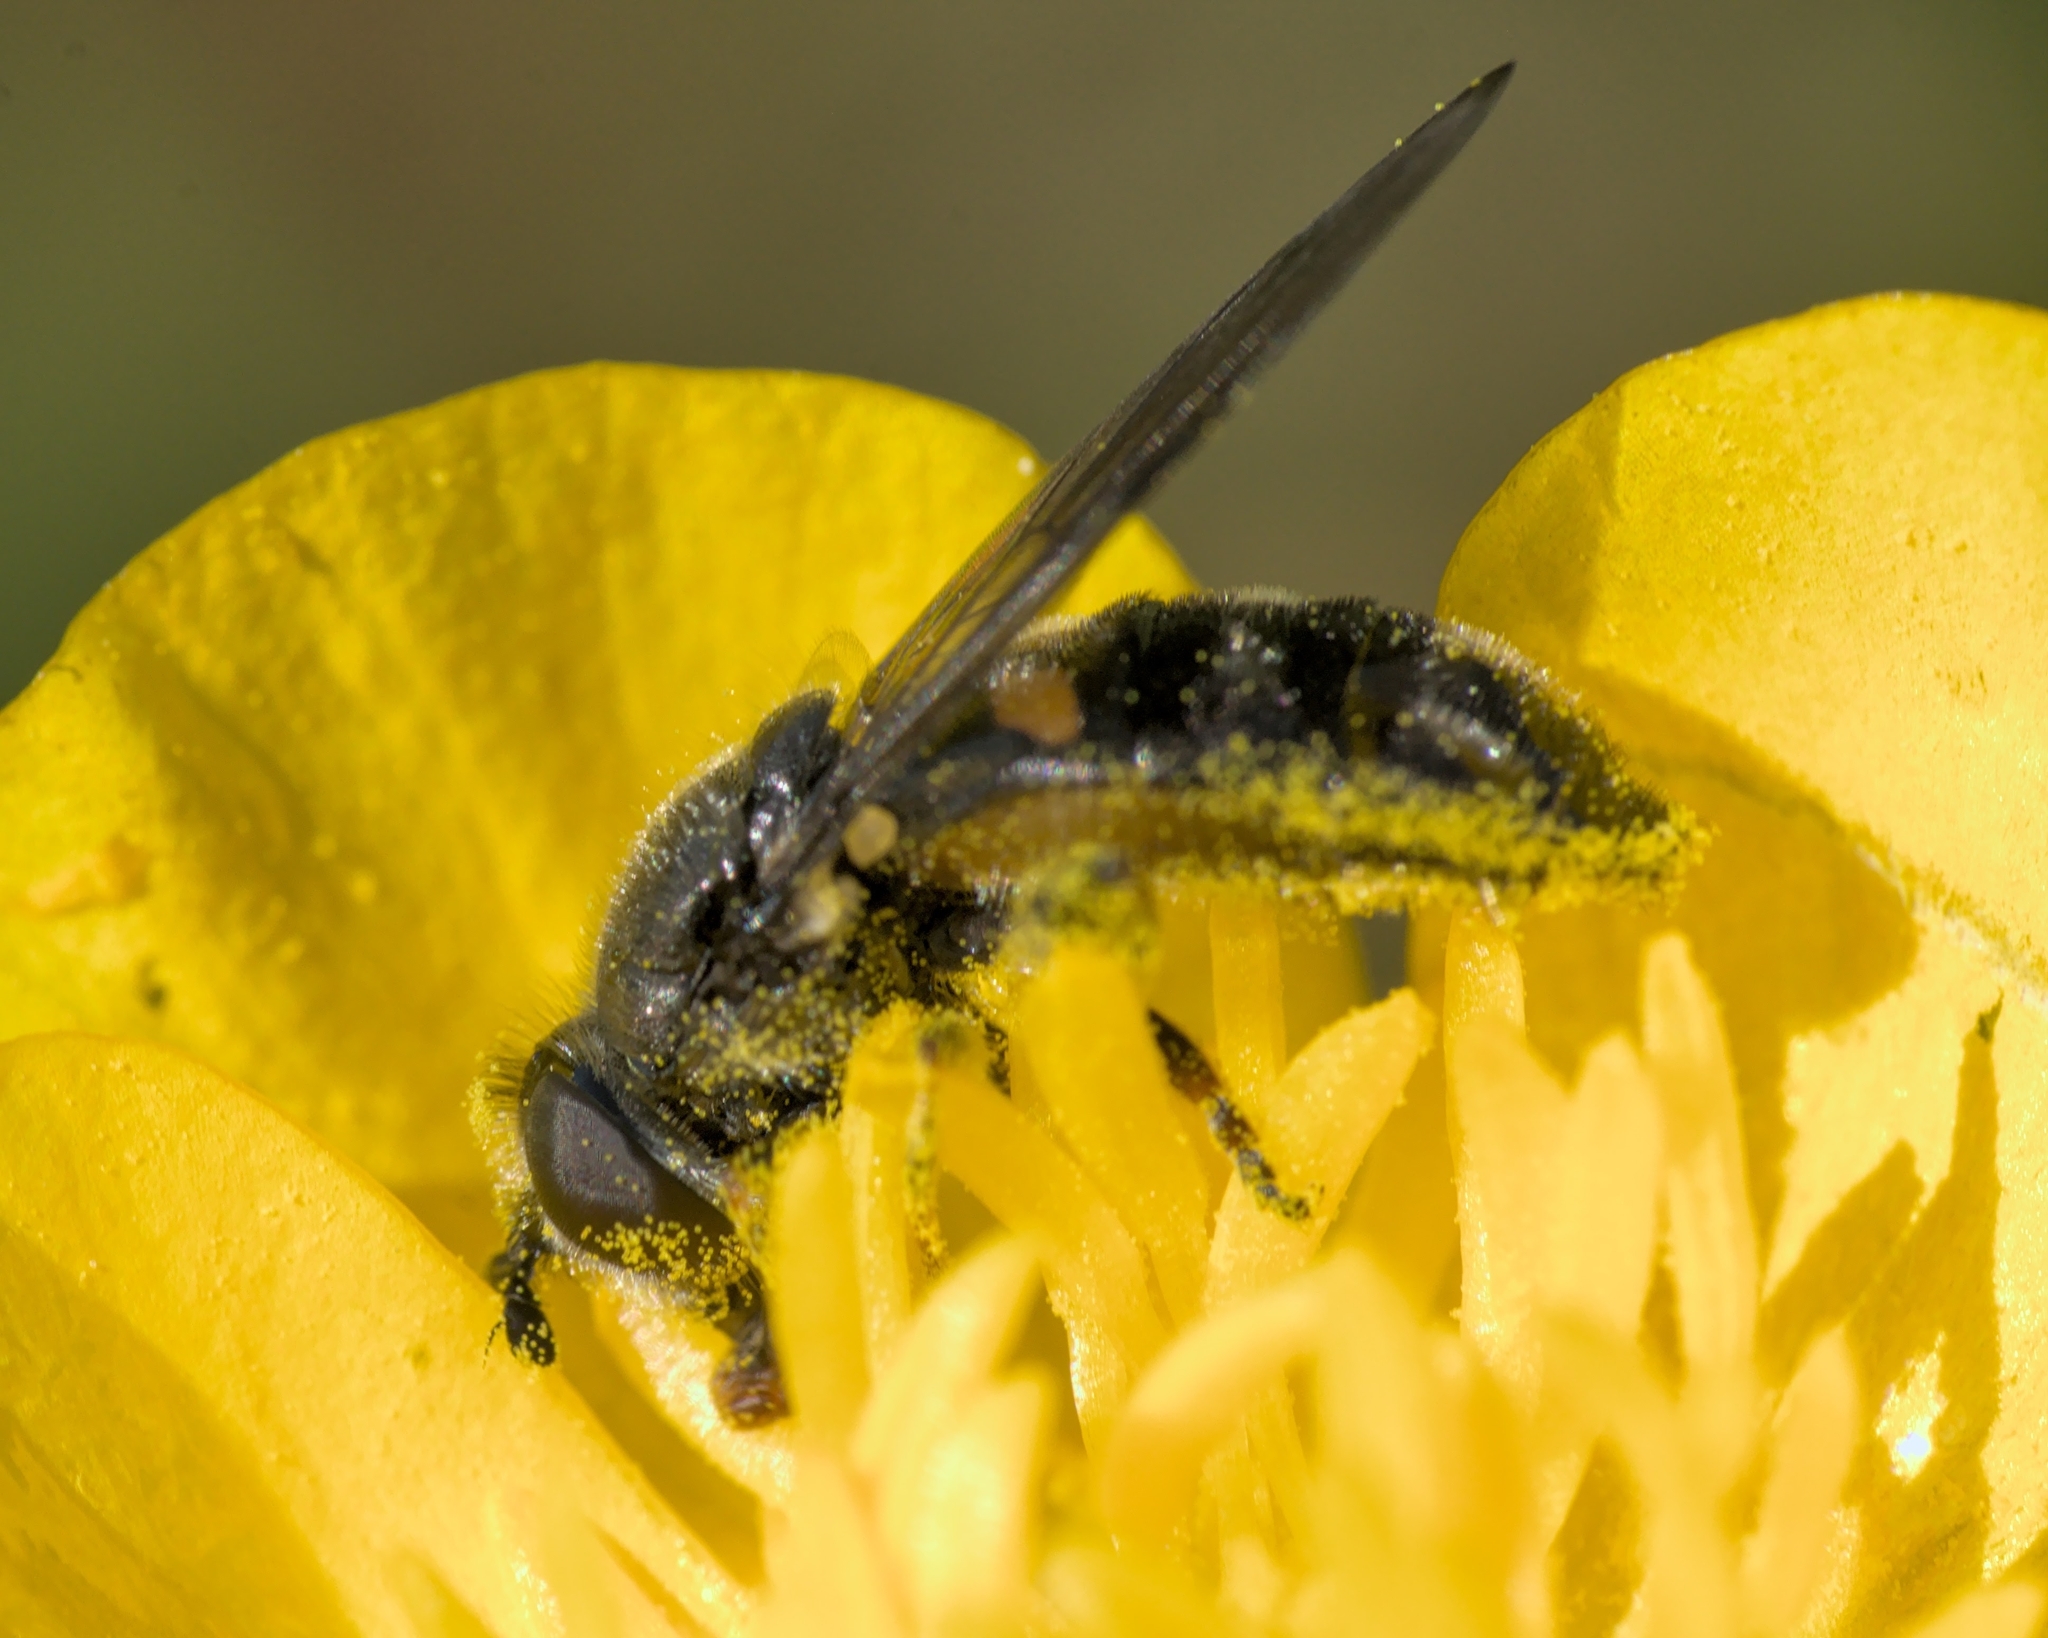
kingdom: Animalia
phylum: Arthropoda
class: Insecta
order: Diptera
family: Syrphidae
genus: Pipiza
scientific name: Pipiza
